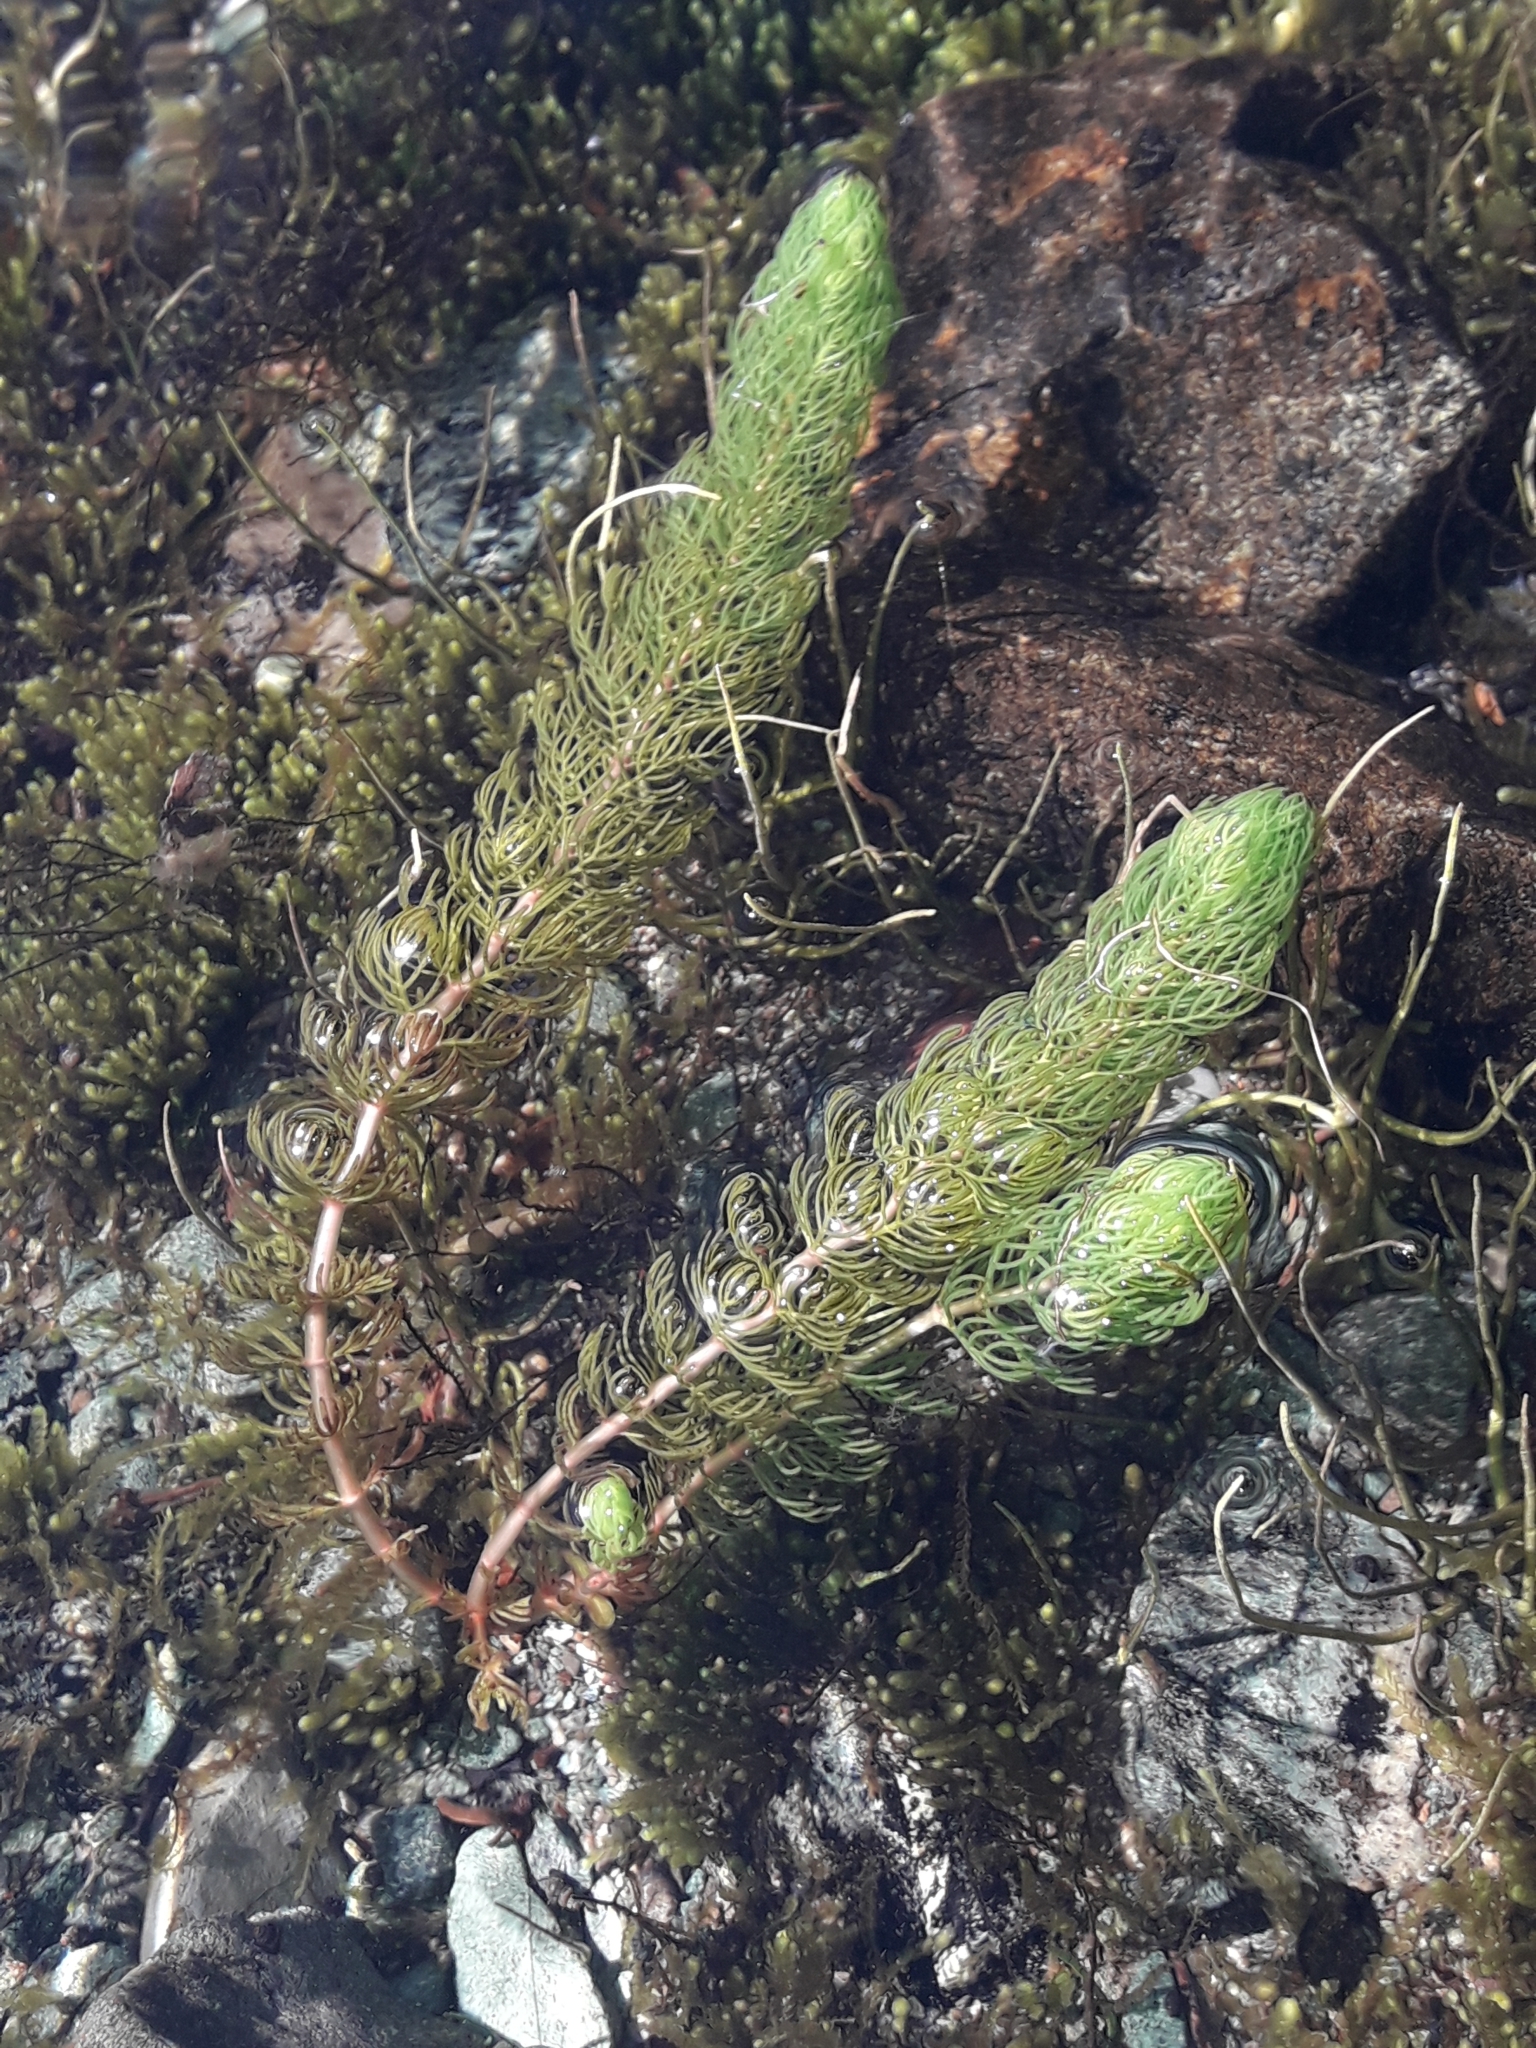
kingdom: Plantae
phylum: Tracheophyta
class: Magnoliopsida
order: Saxifragales
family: Haloragaceae
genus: Myriophyllum
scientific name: Myriophyllum triphyllum
